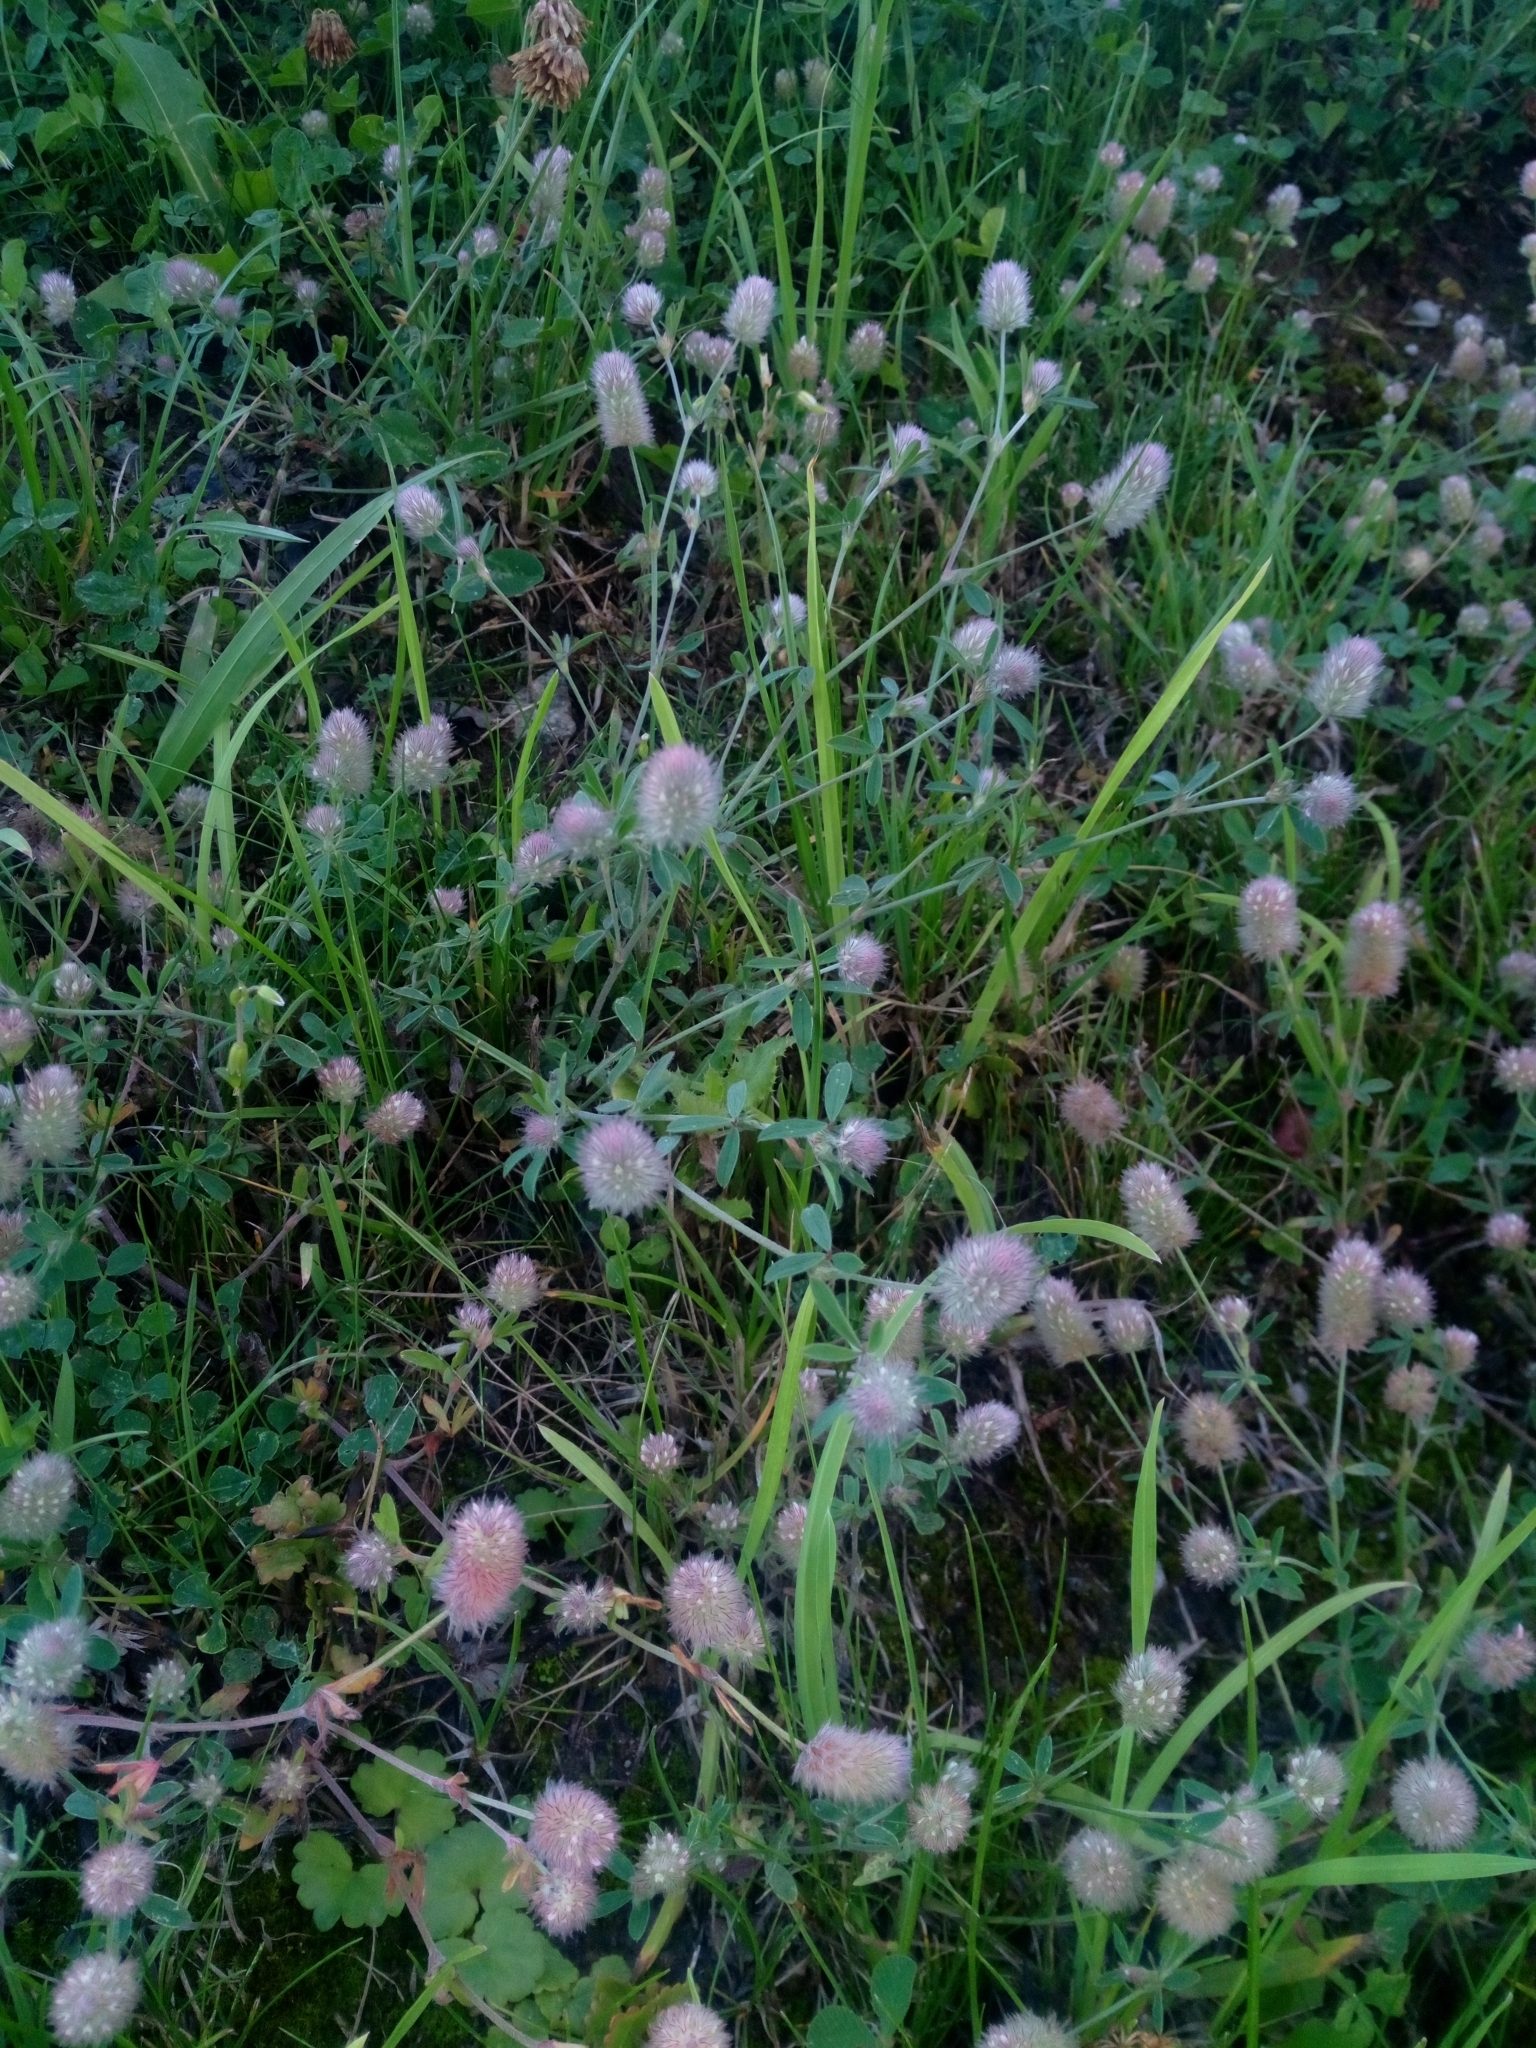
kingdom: Plantae
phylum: Tracheophyta
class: Magnoliopsida
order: Fabales
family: Fabaceae
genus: Trifolium
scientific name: Trifolium arvense
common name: Hare's-foot clover
